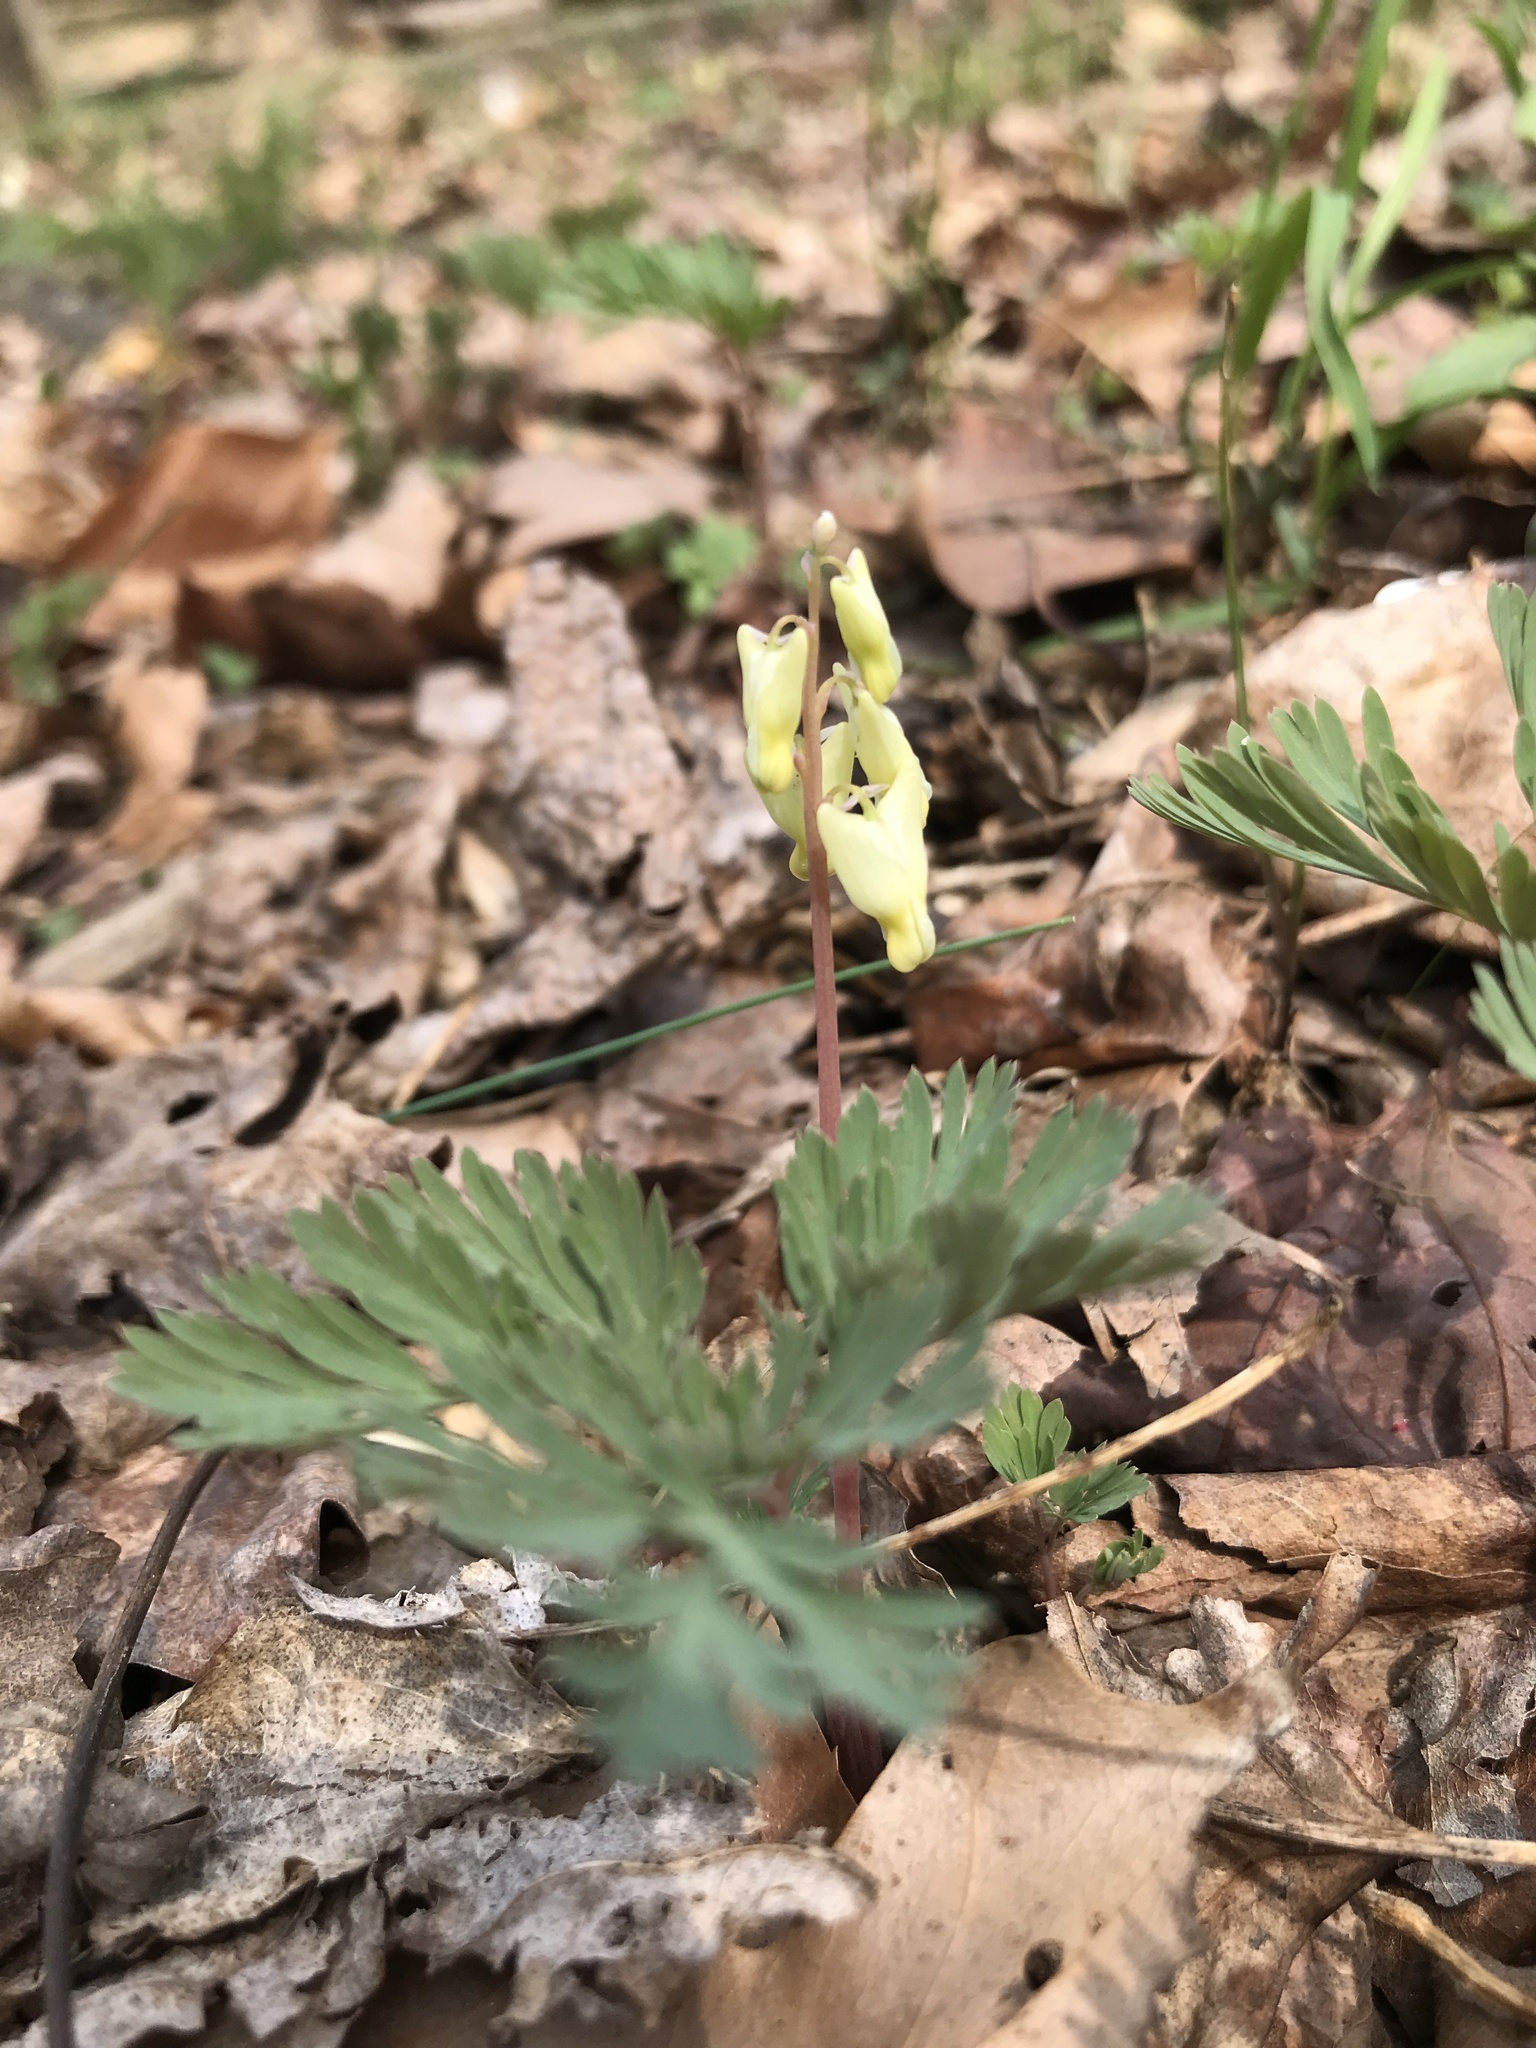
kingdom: Plantae
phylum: Tracheophyta
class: Magnoliopsida
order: Ranunculales
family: Papaveraceae
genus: Dicentra
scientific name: Dicentra cucullaria
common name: Dutchman's breeches
